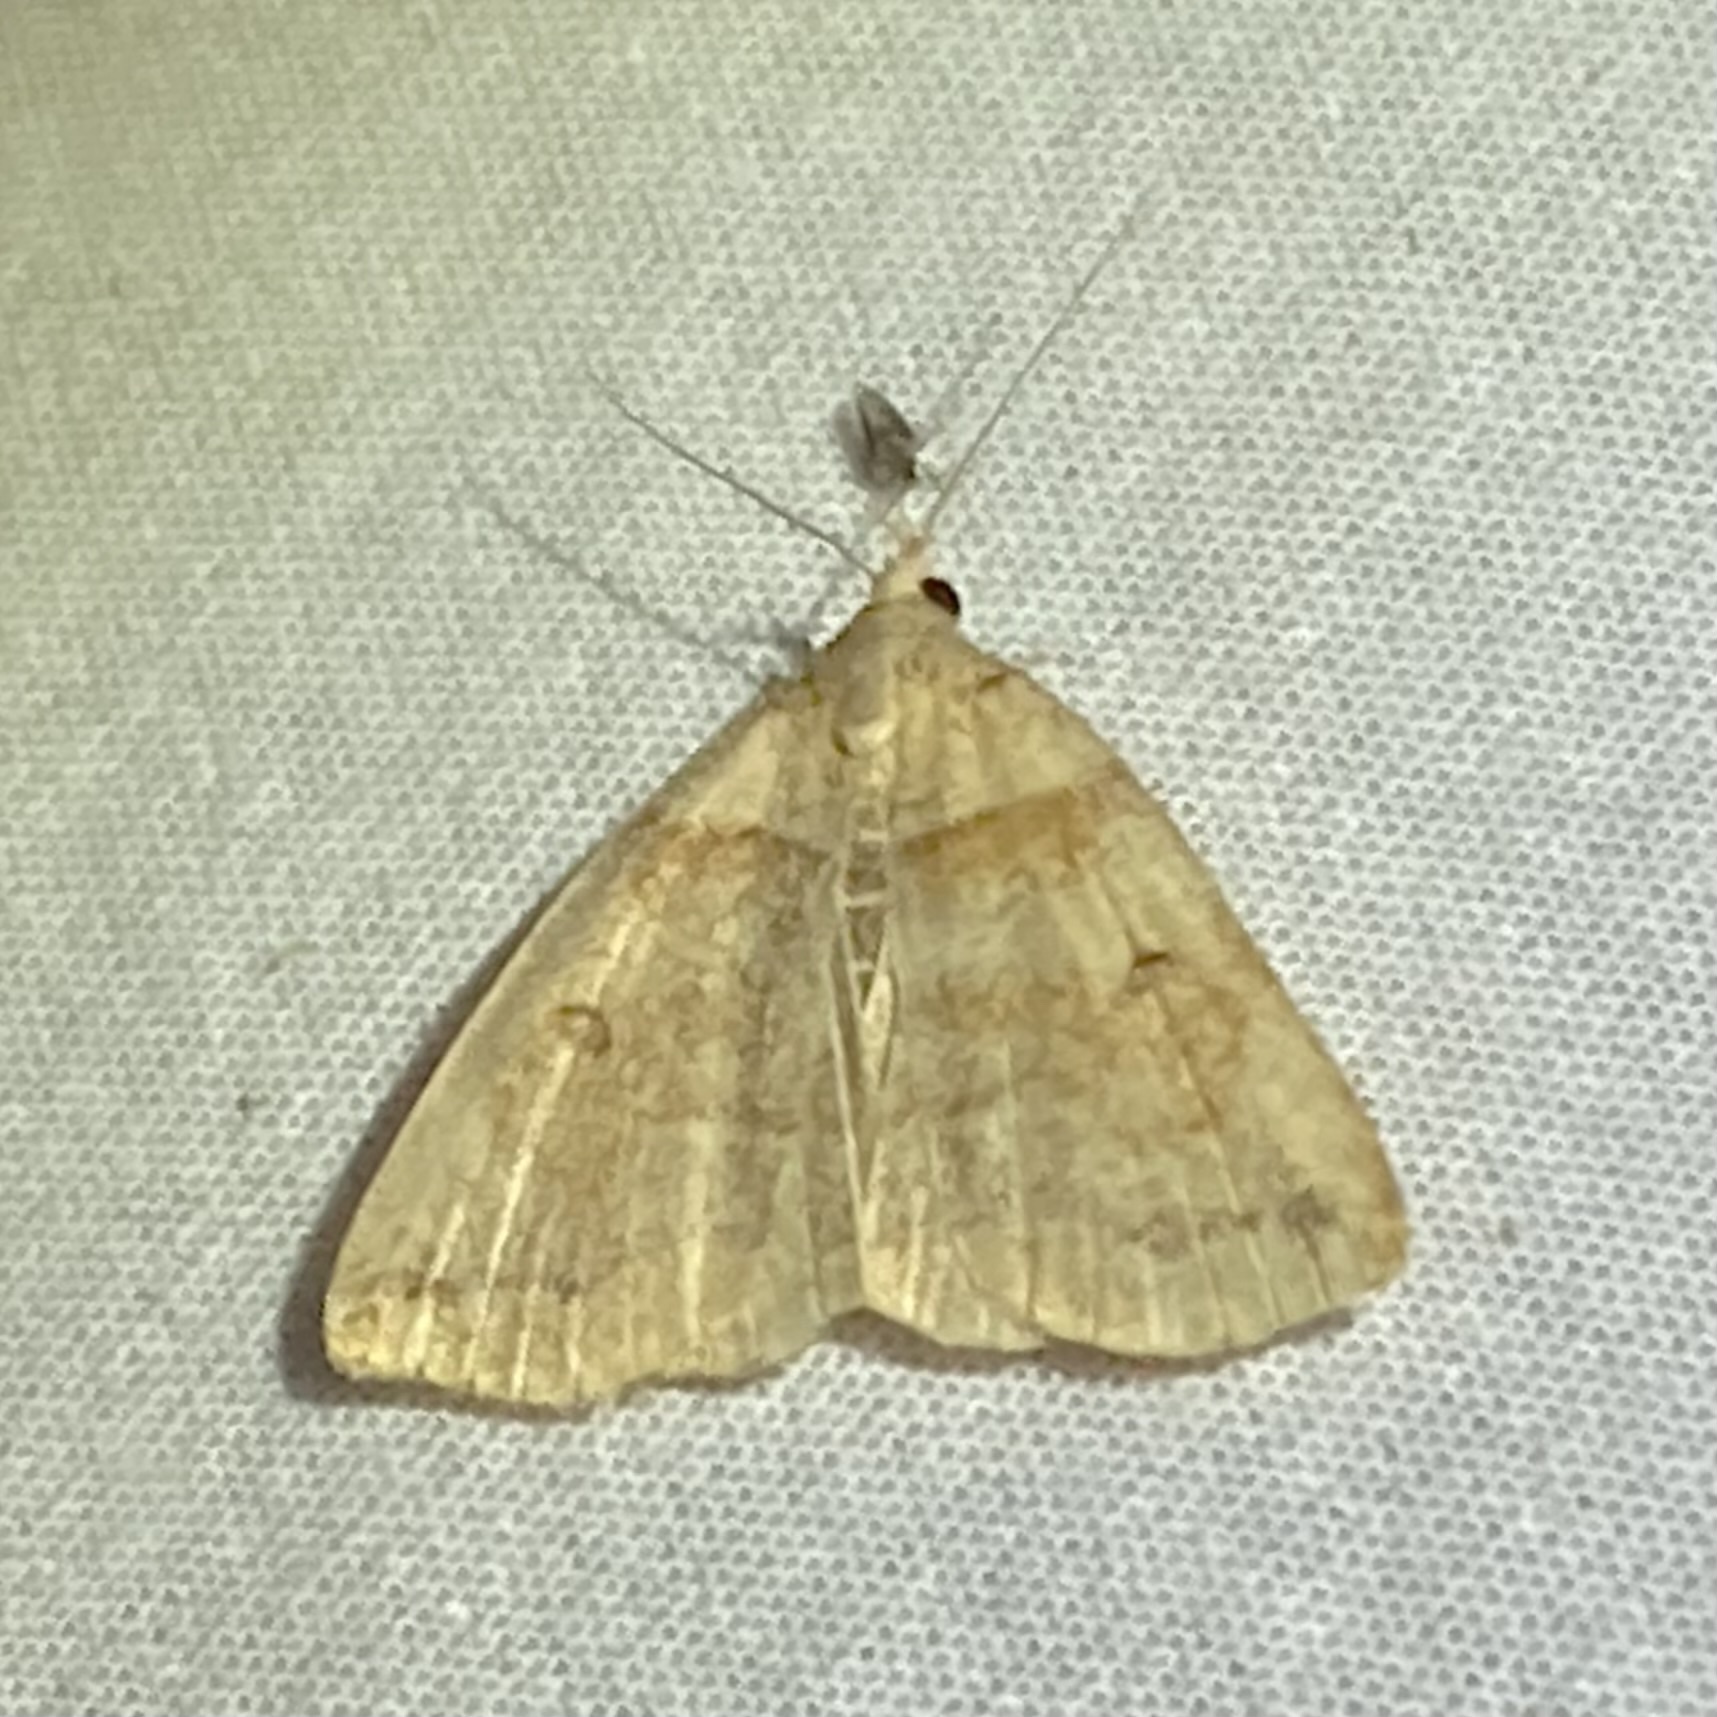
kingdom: Animalia
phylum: Arthropoda
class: Insecta
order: Lepidoptera
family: Erebidae
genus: Zanclognatha
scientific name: Zanclognatha laevigata
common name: Variable fan-foot
